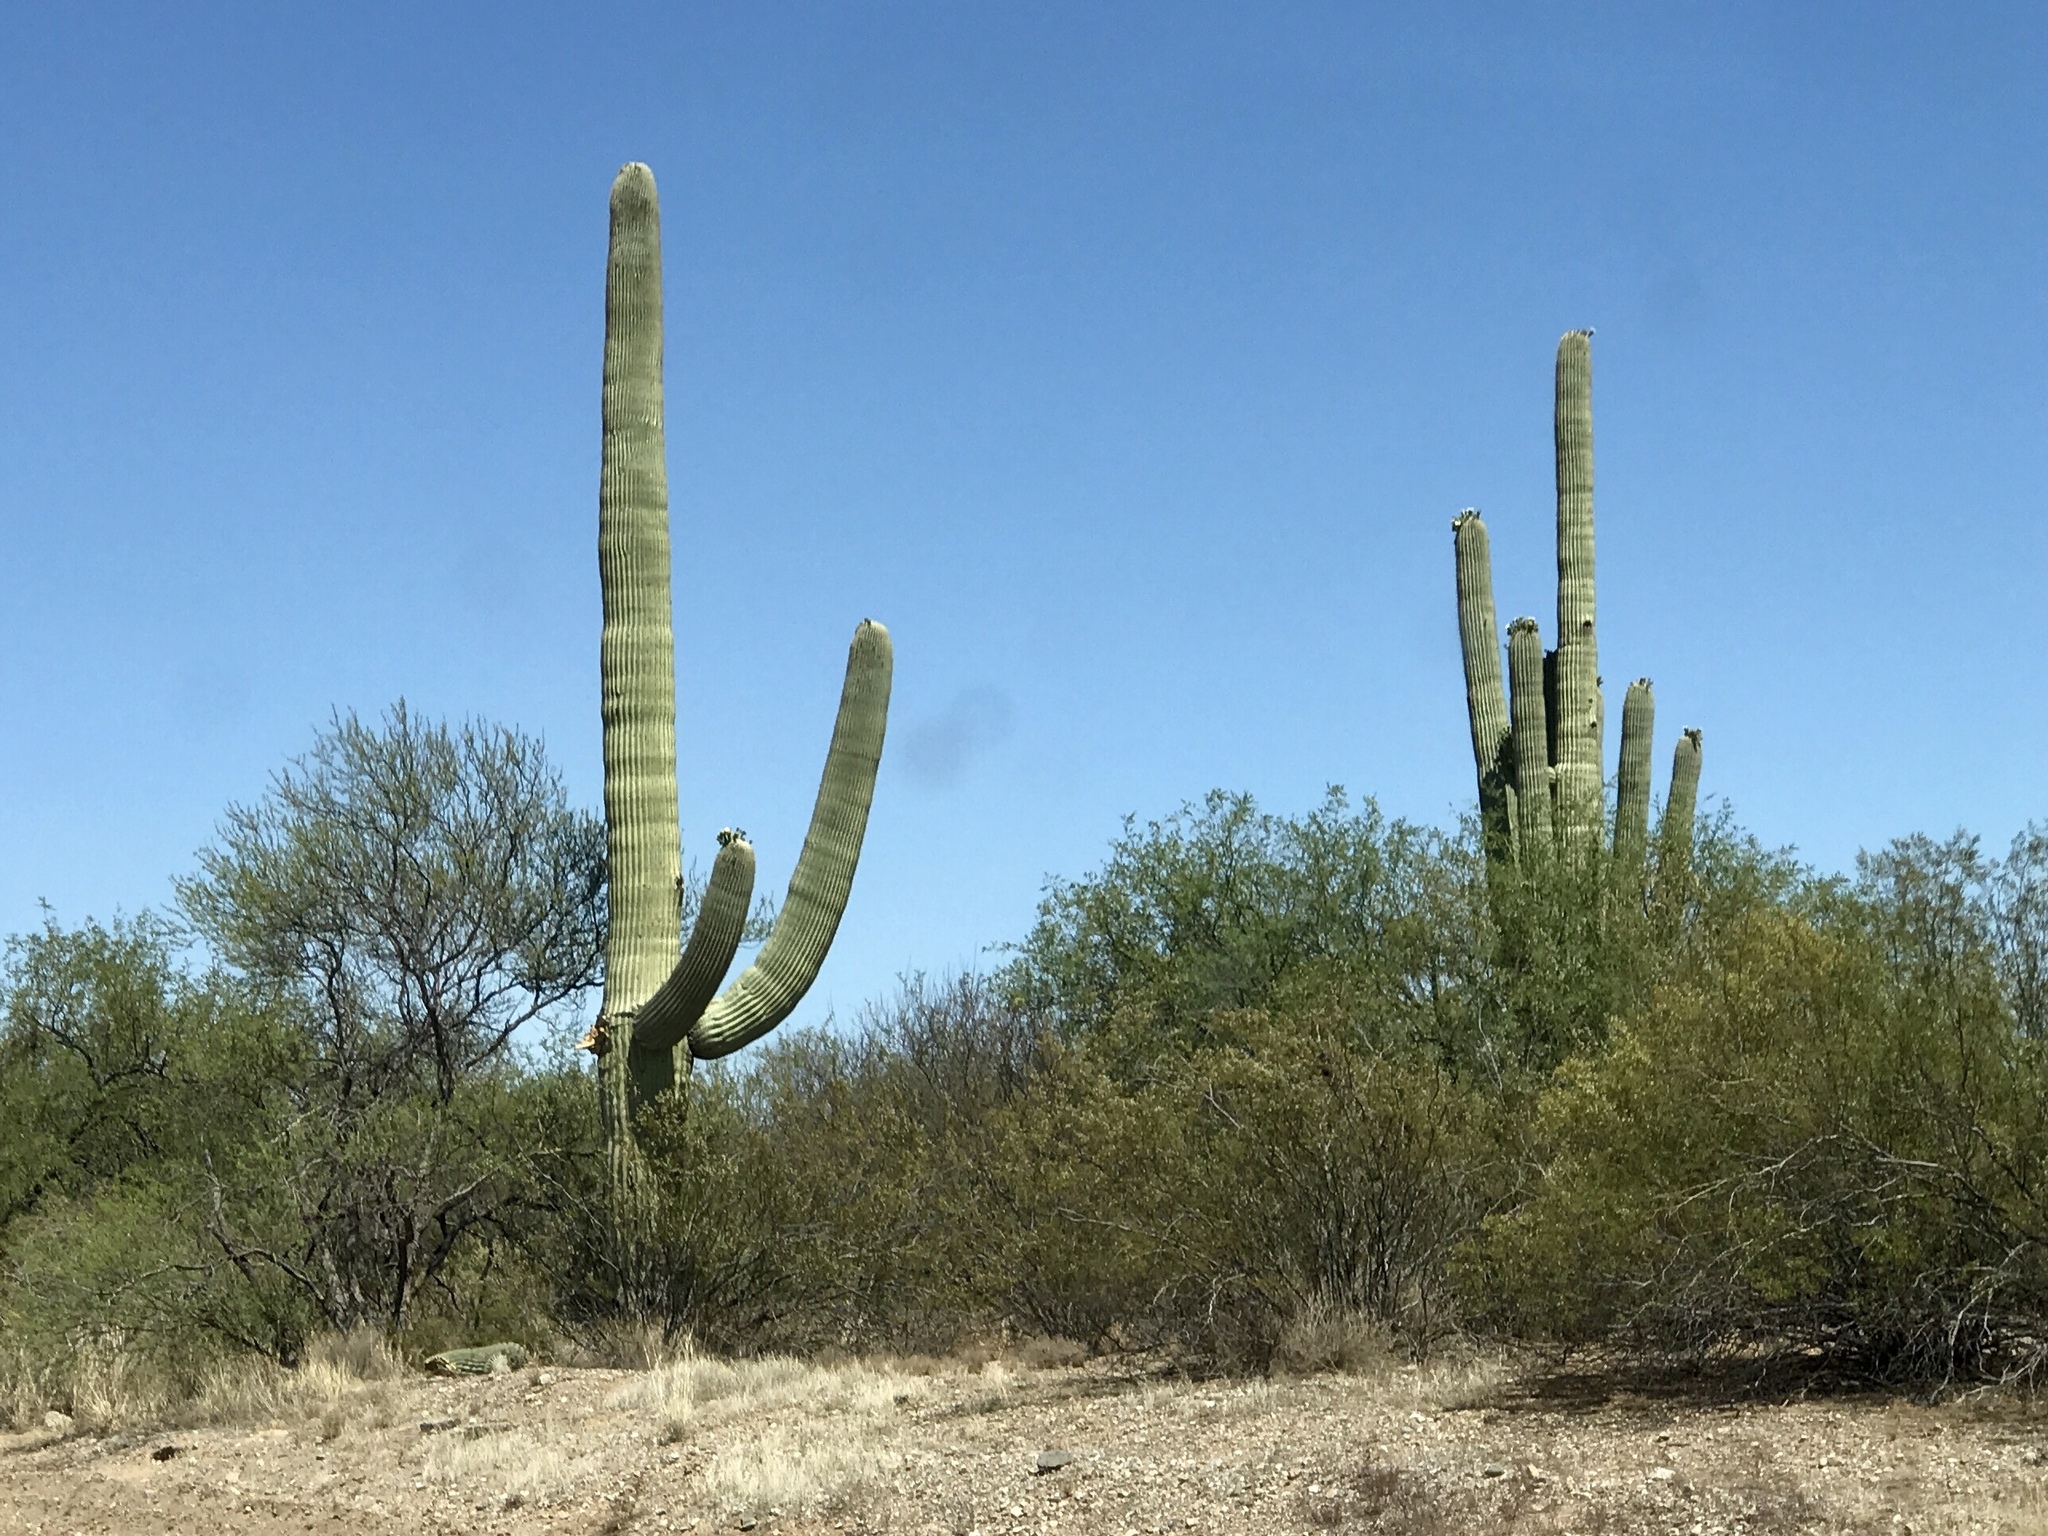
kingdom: Plantae
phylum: Tracheophyta
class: Magnoliopsida
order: Caryophyllales
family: Cactaceae
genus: Carnegiea
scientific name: Carnegiea gigantea
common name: Saguaro
